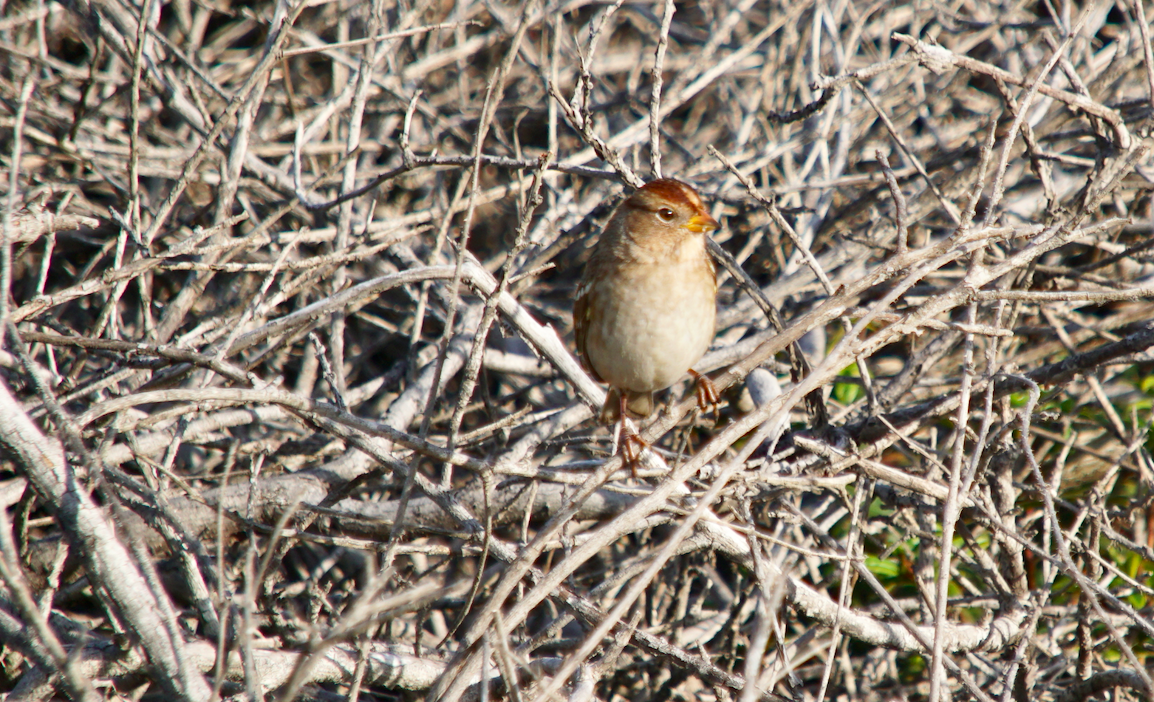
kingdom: Animalia
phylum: Chordata
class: Aves
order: Passeriformes
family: Passerellidae
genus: Zonotrichia
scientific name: Zonotrichia leucophrys
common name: White-crowned sparrow
